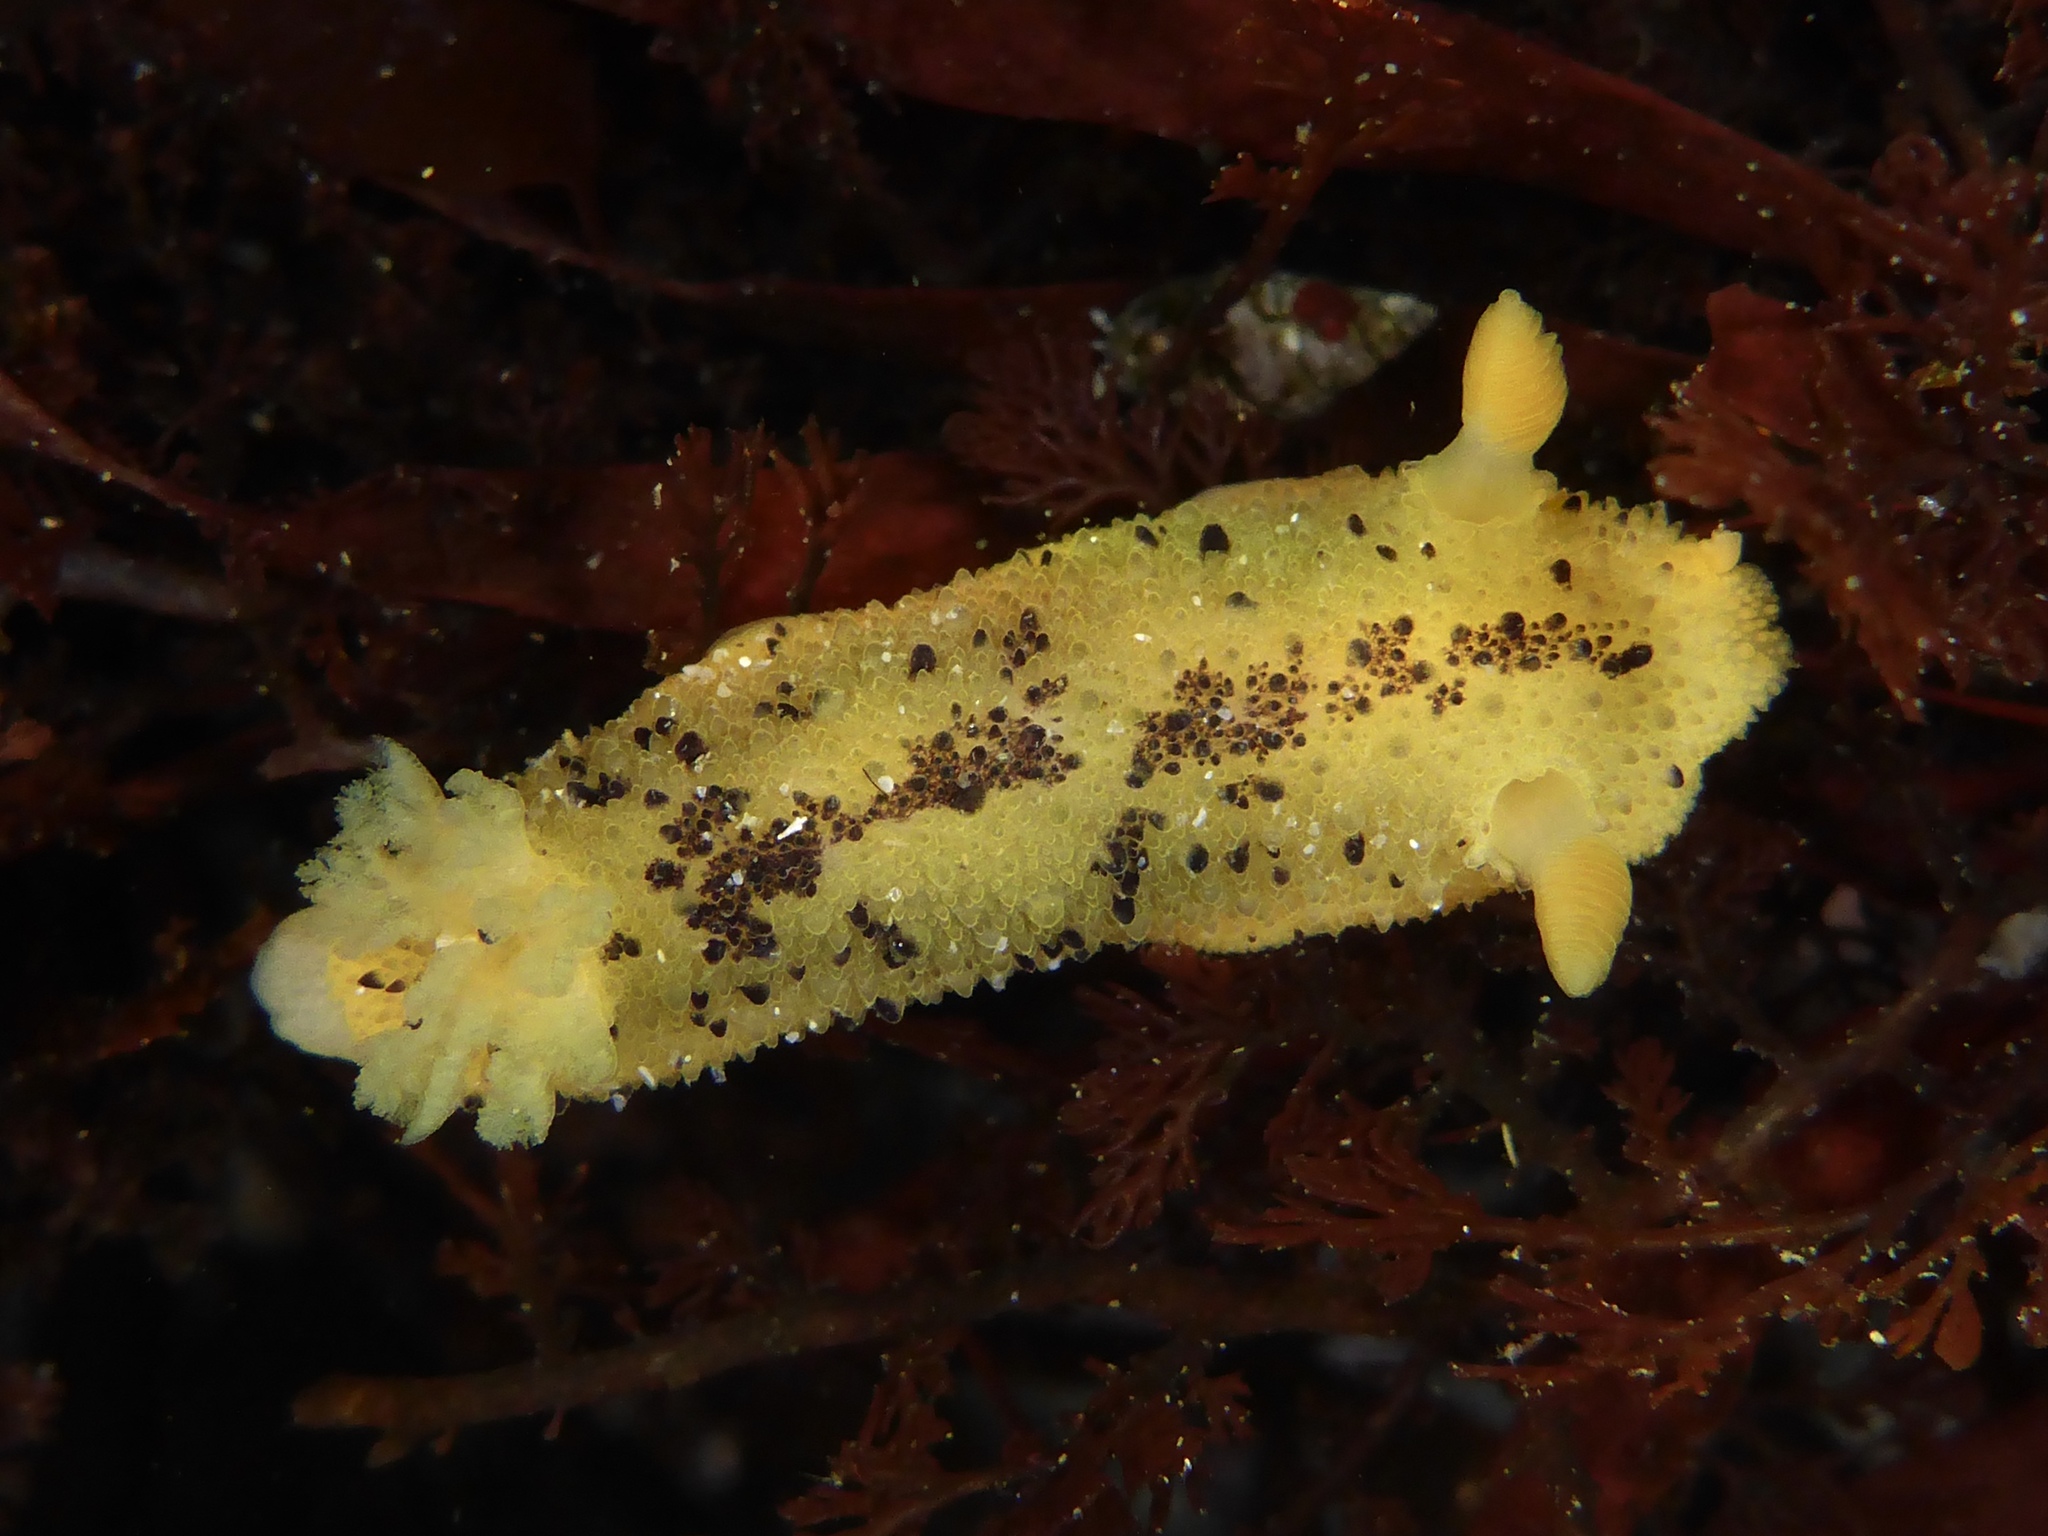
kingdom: Animalia
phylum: Mollusca
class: Gastropoda
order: Nudibranchia
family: Dorididae
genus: Doris
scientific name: Doris montereyensis
